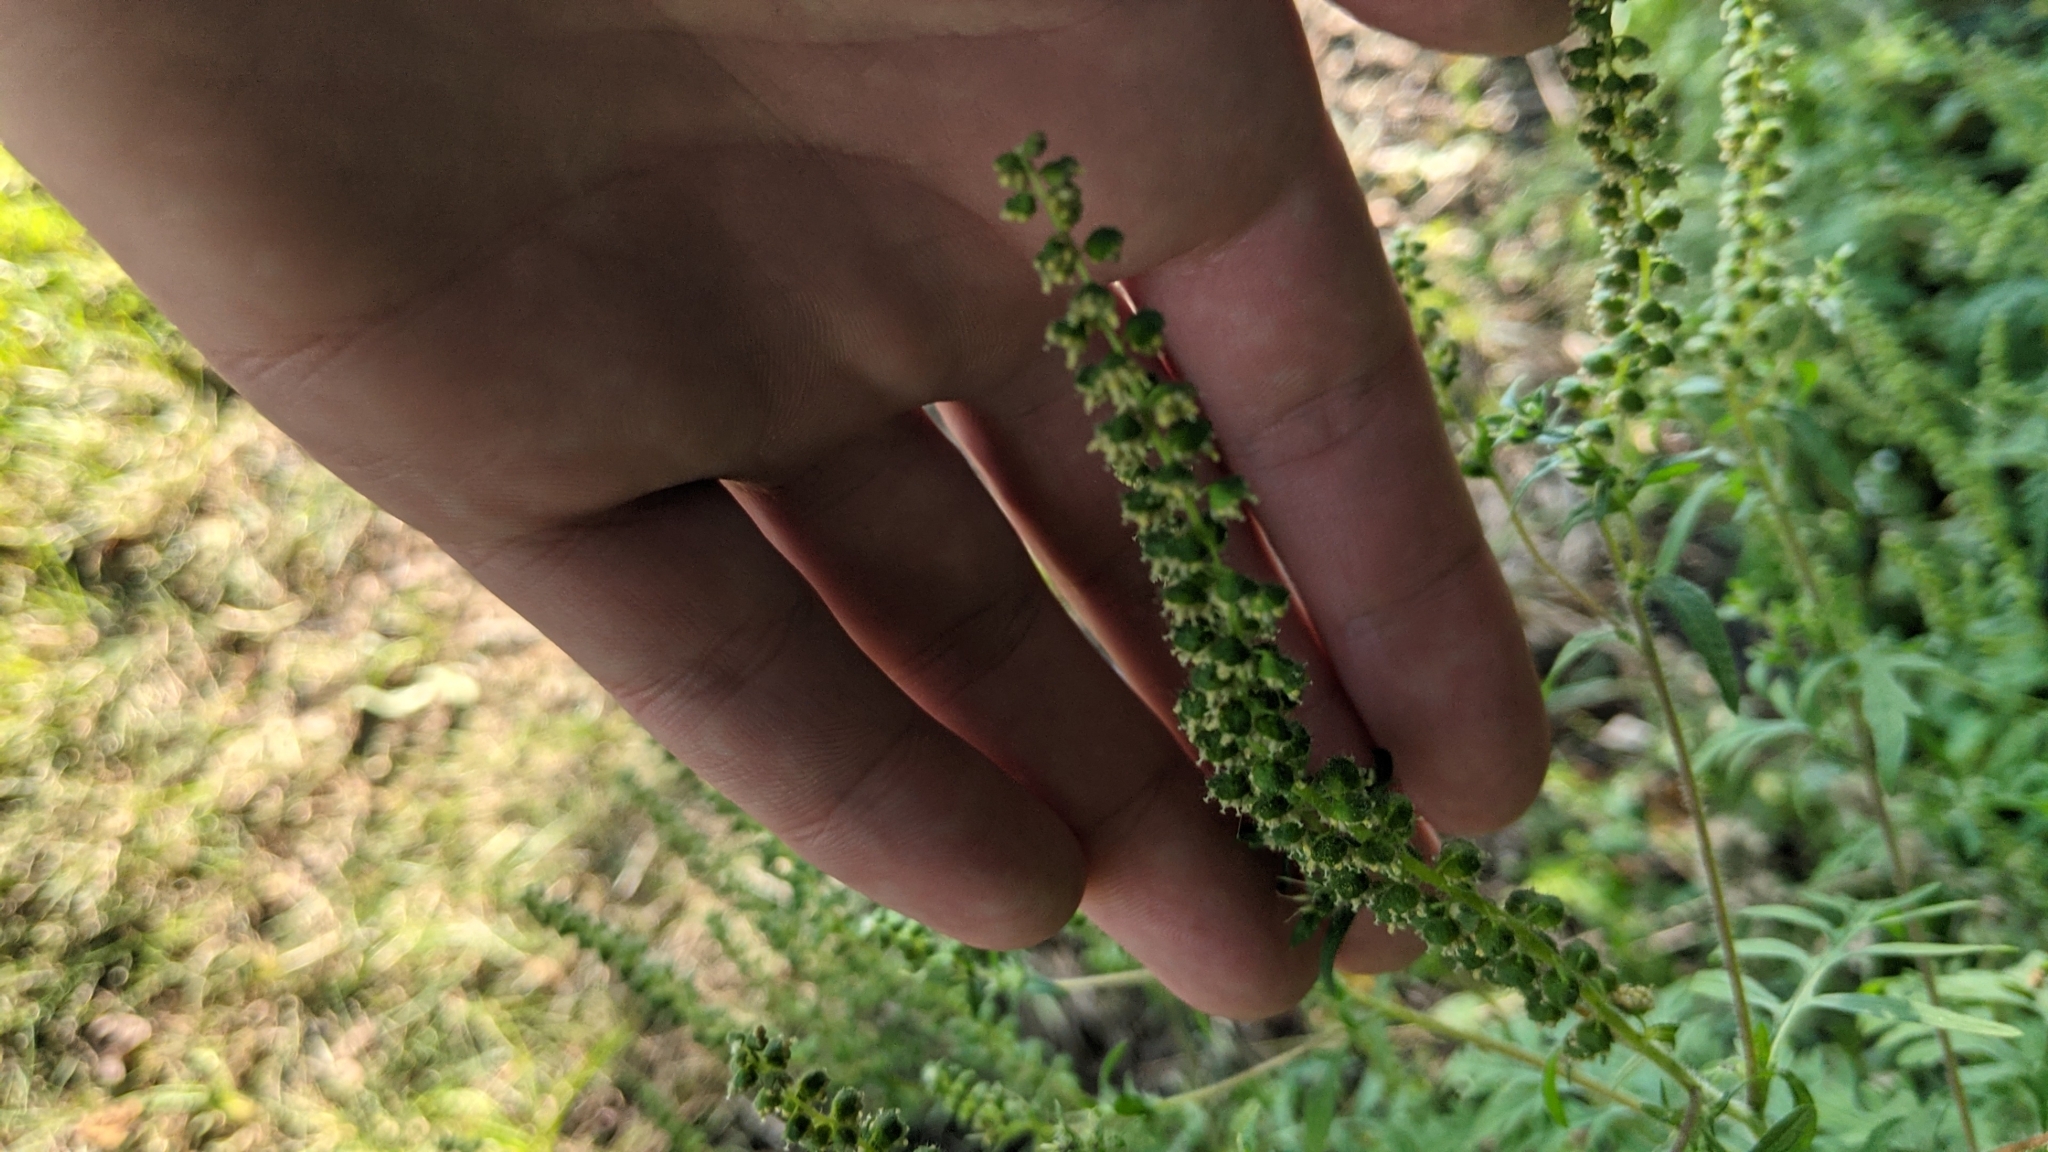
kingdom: Plantae
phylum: Tracheophyta
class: Magnoliopsida
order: Asterales
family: Asteraceae
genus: Ambrosia
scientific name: Ambrosia artemisiifolia
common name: Annual ragweed
